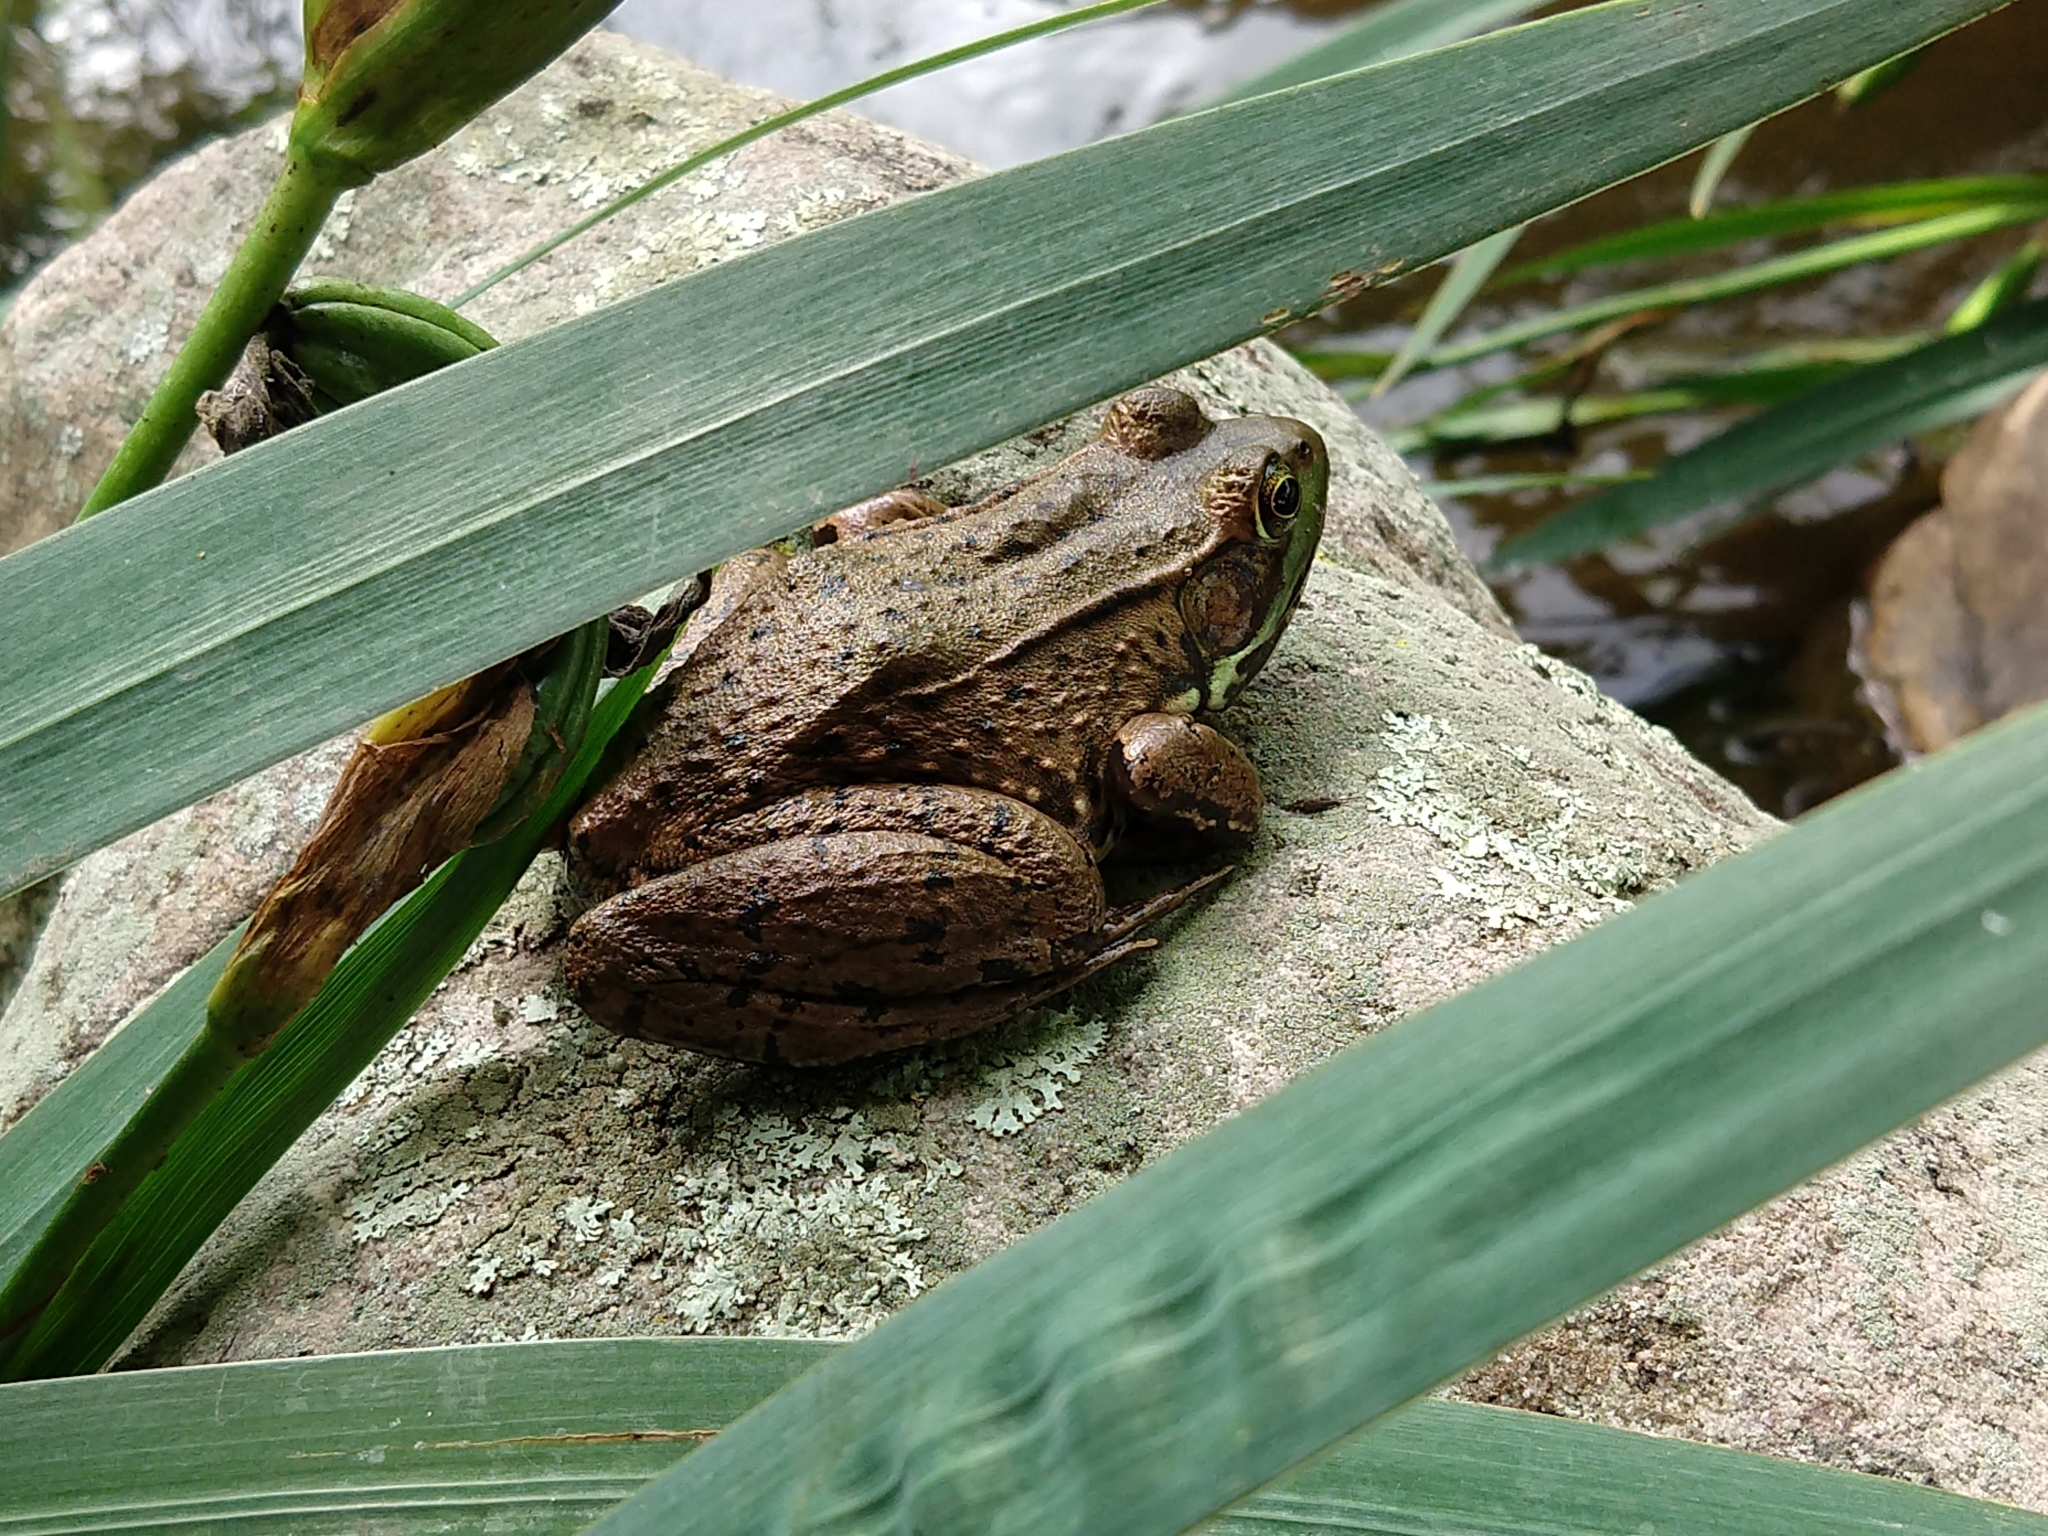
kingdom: Animalia
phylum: Chordata
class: Amphibia
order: Anura
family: Ranidae
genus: Lithobates
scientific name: Lithobates clamitans
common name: Green frog
